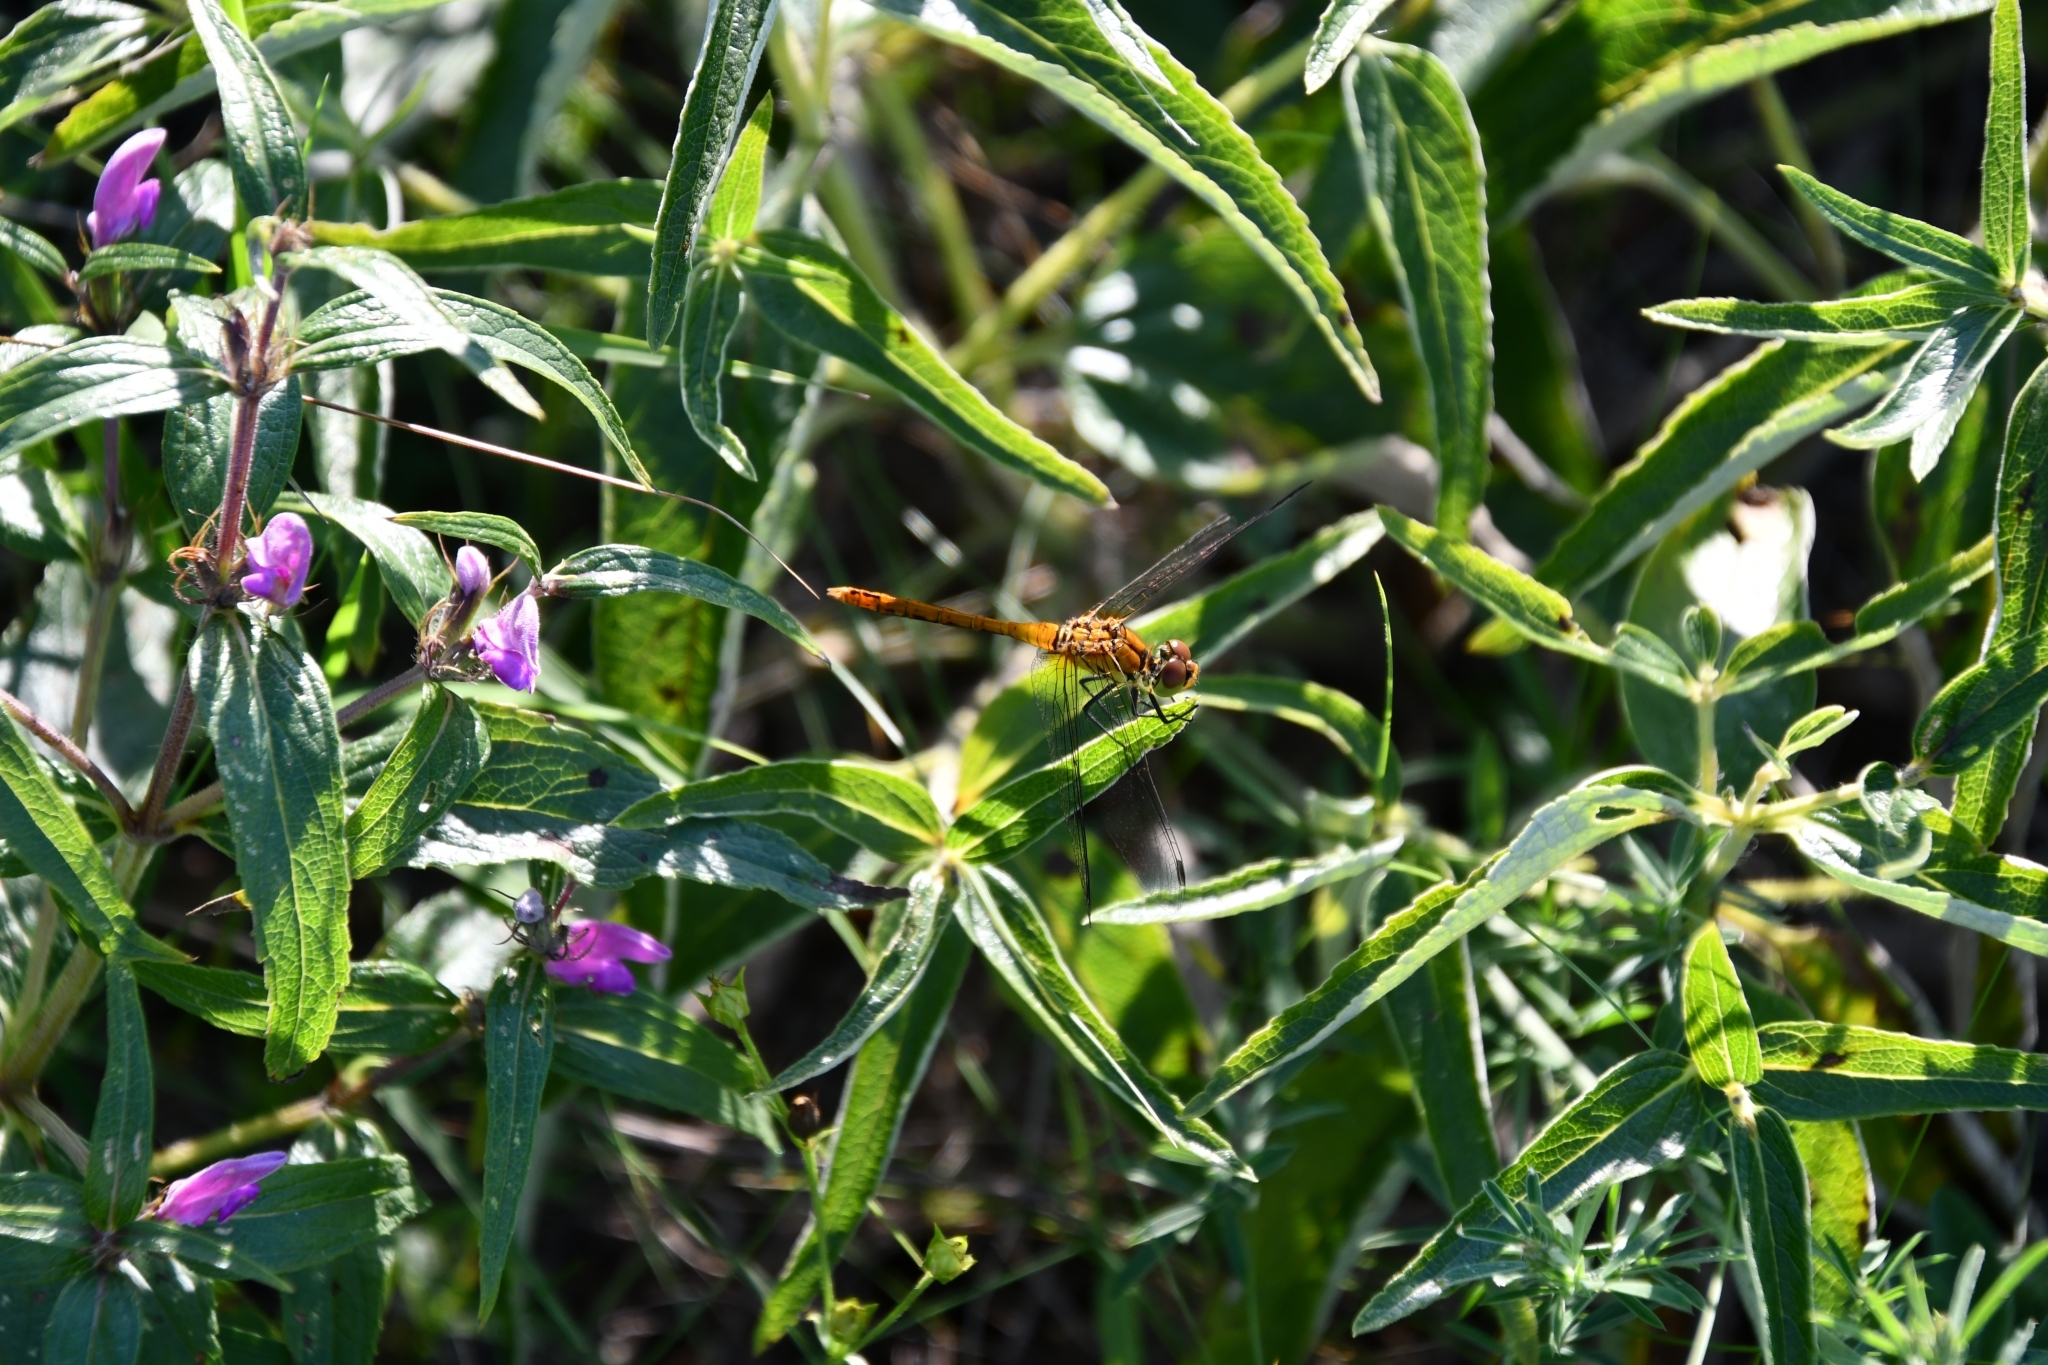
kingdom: Animalia
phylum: Arthropoda
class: Insecta
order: Odonata
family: Libellulidae
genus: Sympetrum
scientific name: Sympetrum sanguineum
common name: Ruddy darter
